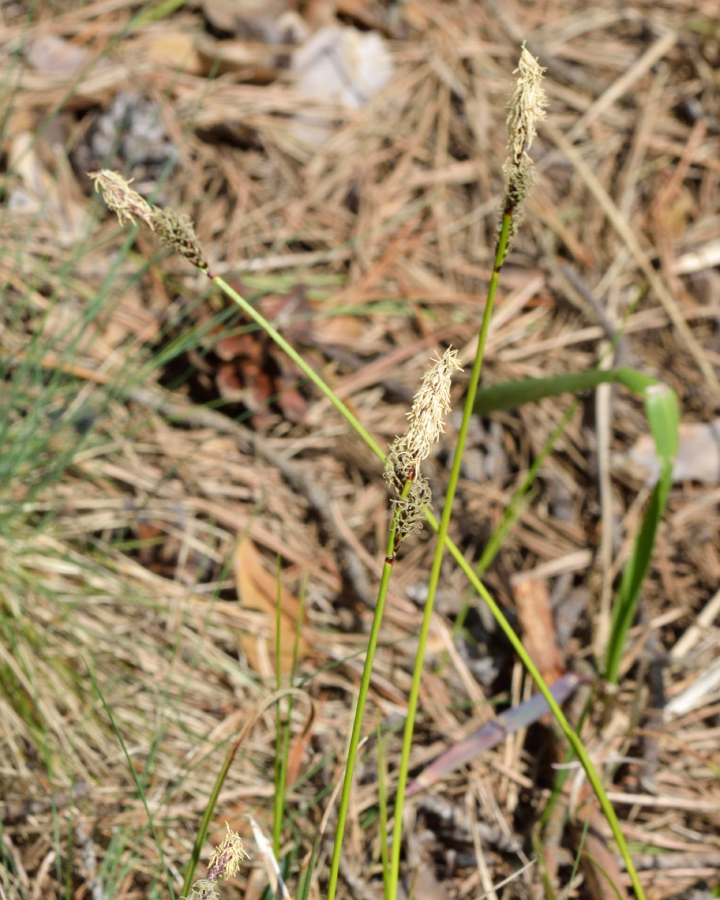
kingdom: Plantae
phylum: Tracheophyta
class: Liliopsida
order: Poales
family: Cyperaceae
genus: Carex
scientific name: Carex ericetorum
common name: Rare spring-sedge
